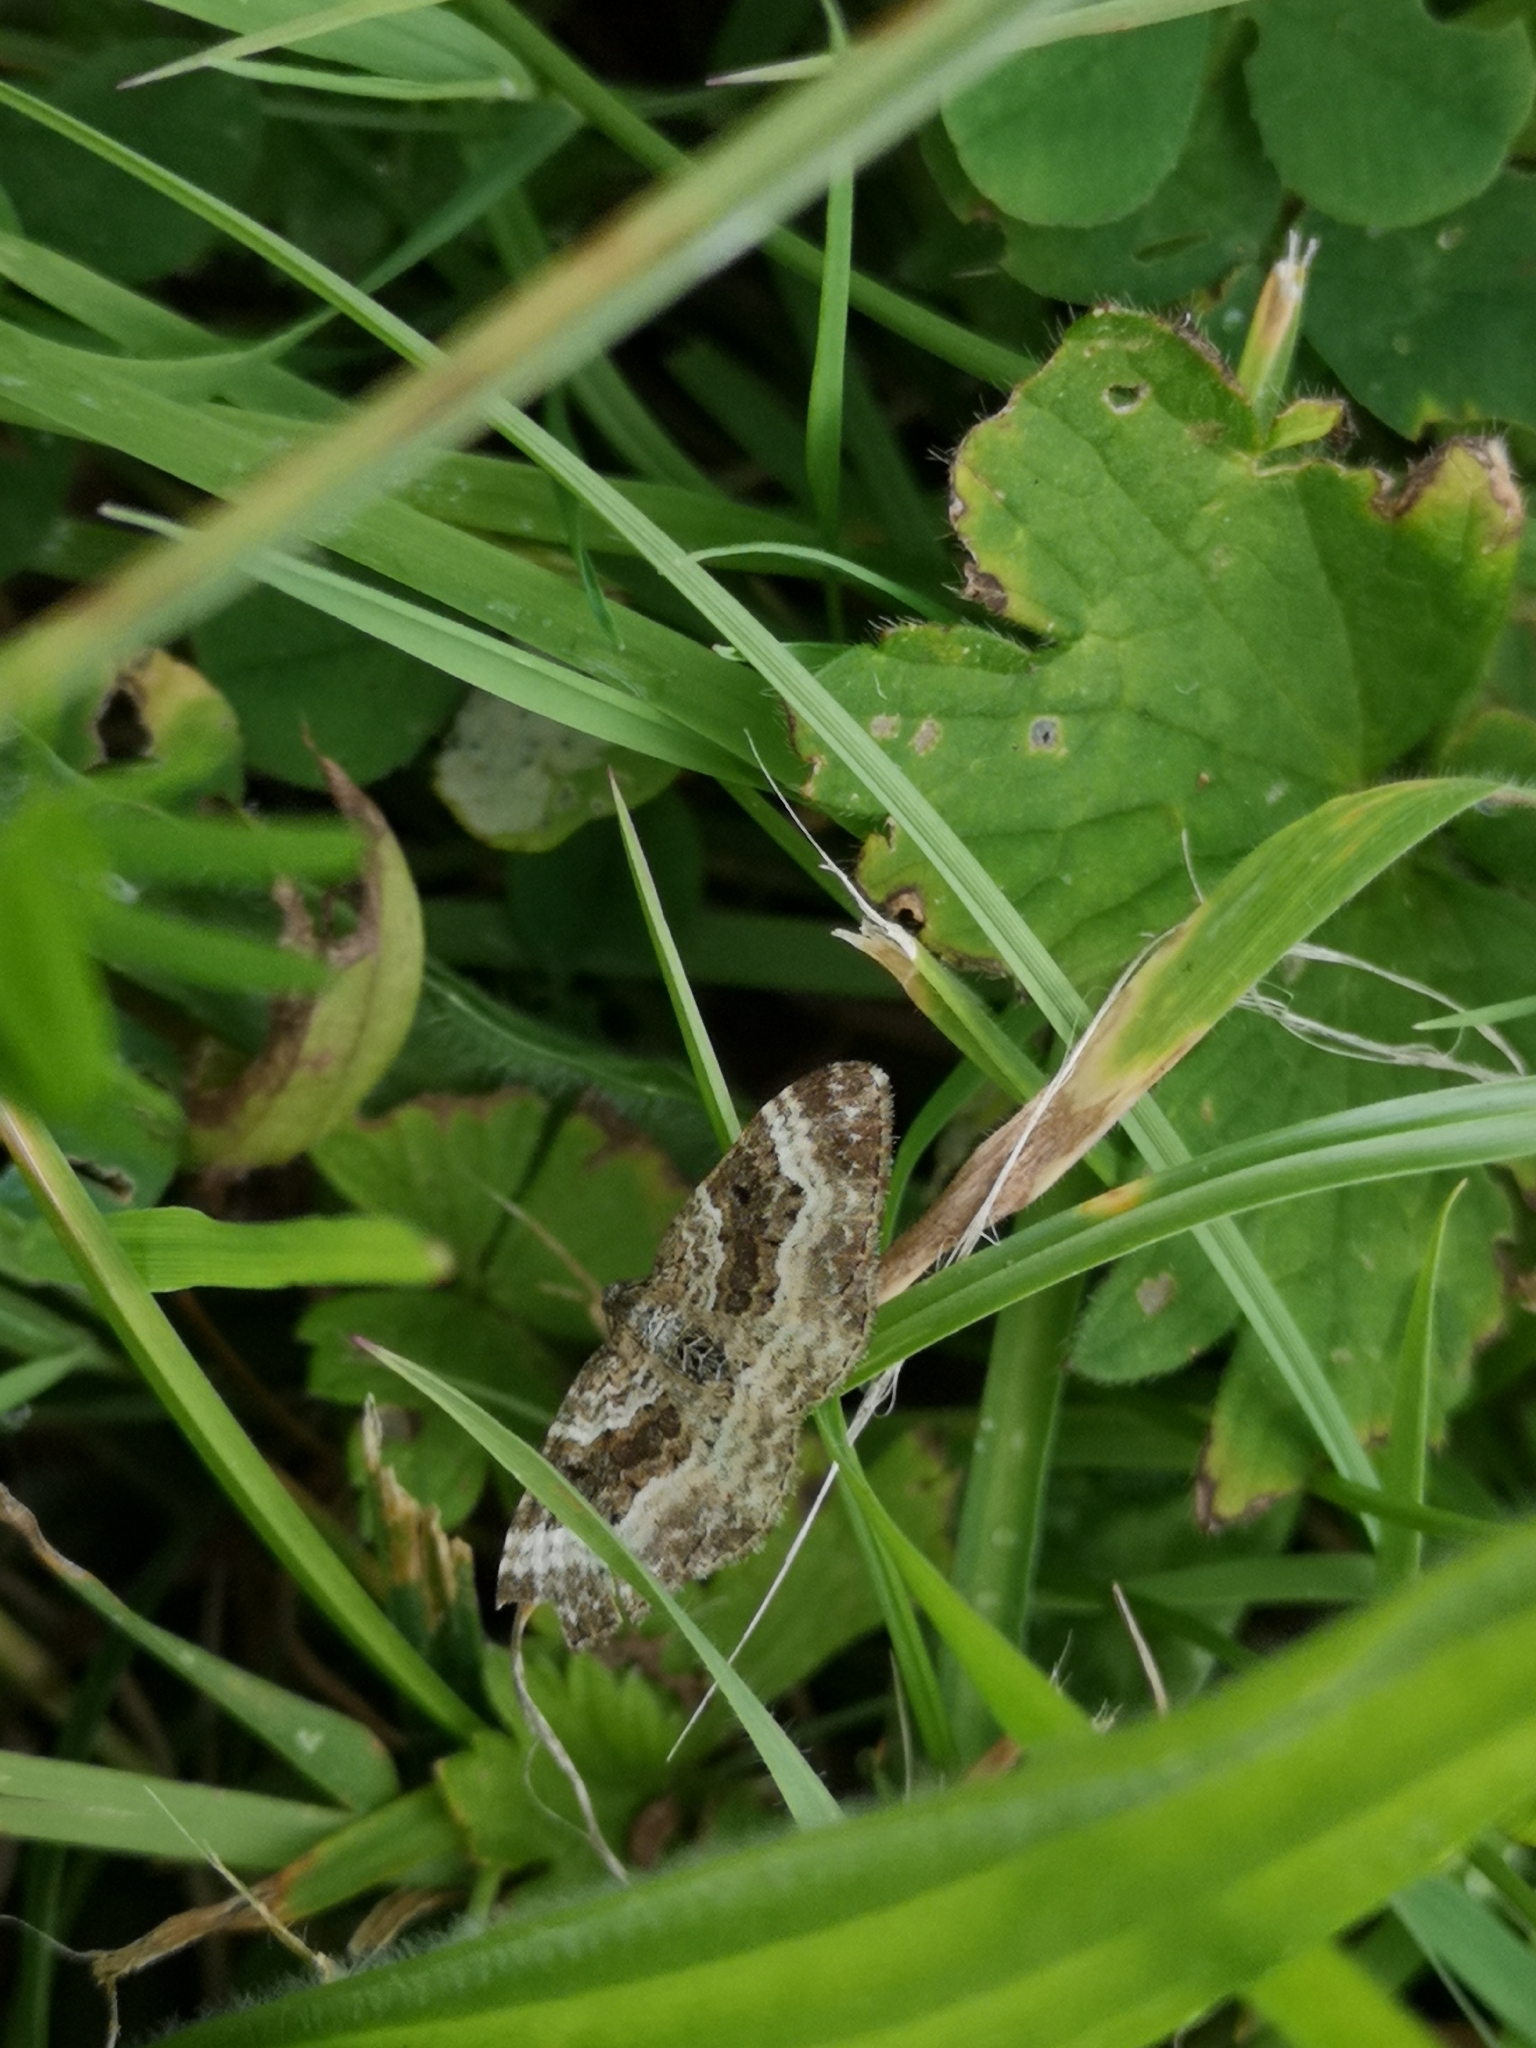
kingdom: Animalia
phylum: Arthropoda
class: Insecta
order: Lepidoptera
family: Geometridae
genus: Epirrhoe
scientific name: Epirrhoe alternata
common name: Common carpet
